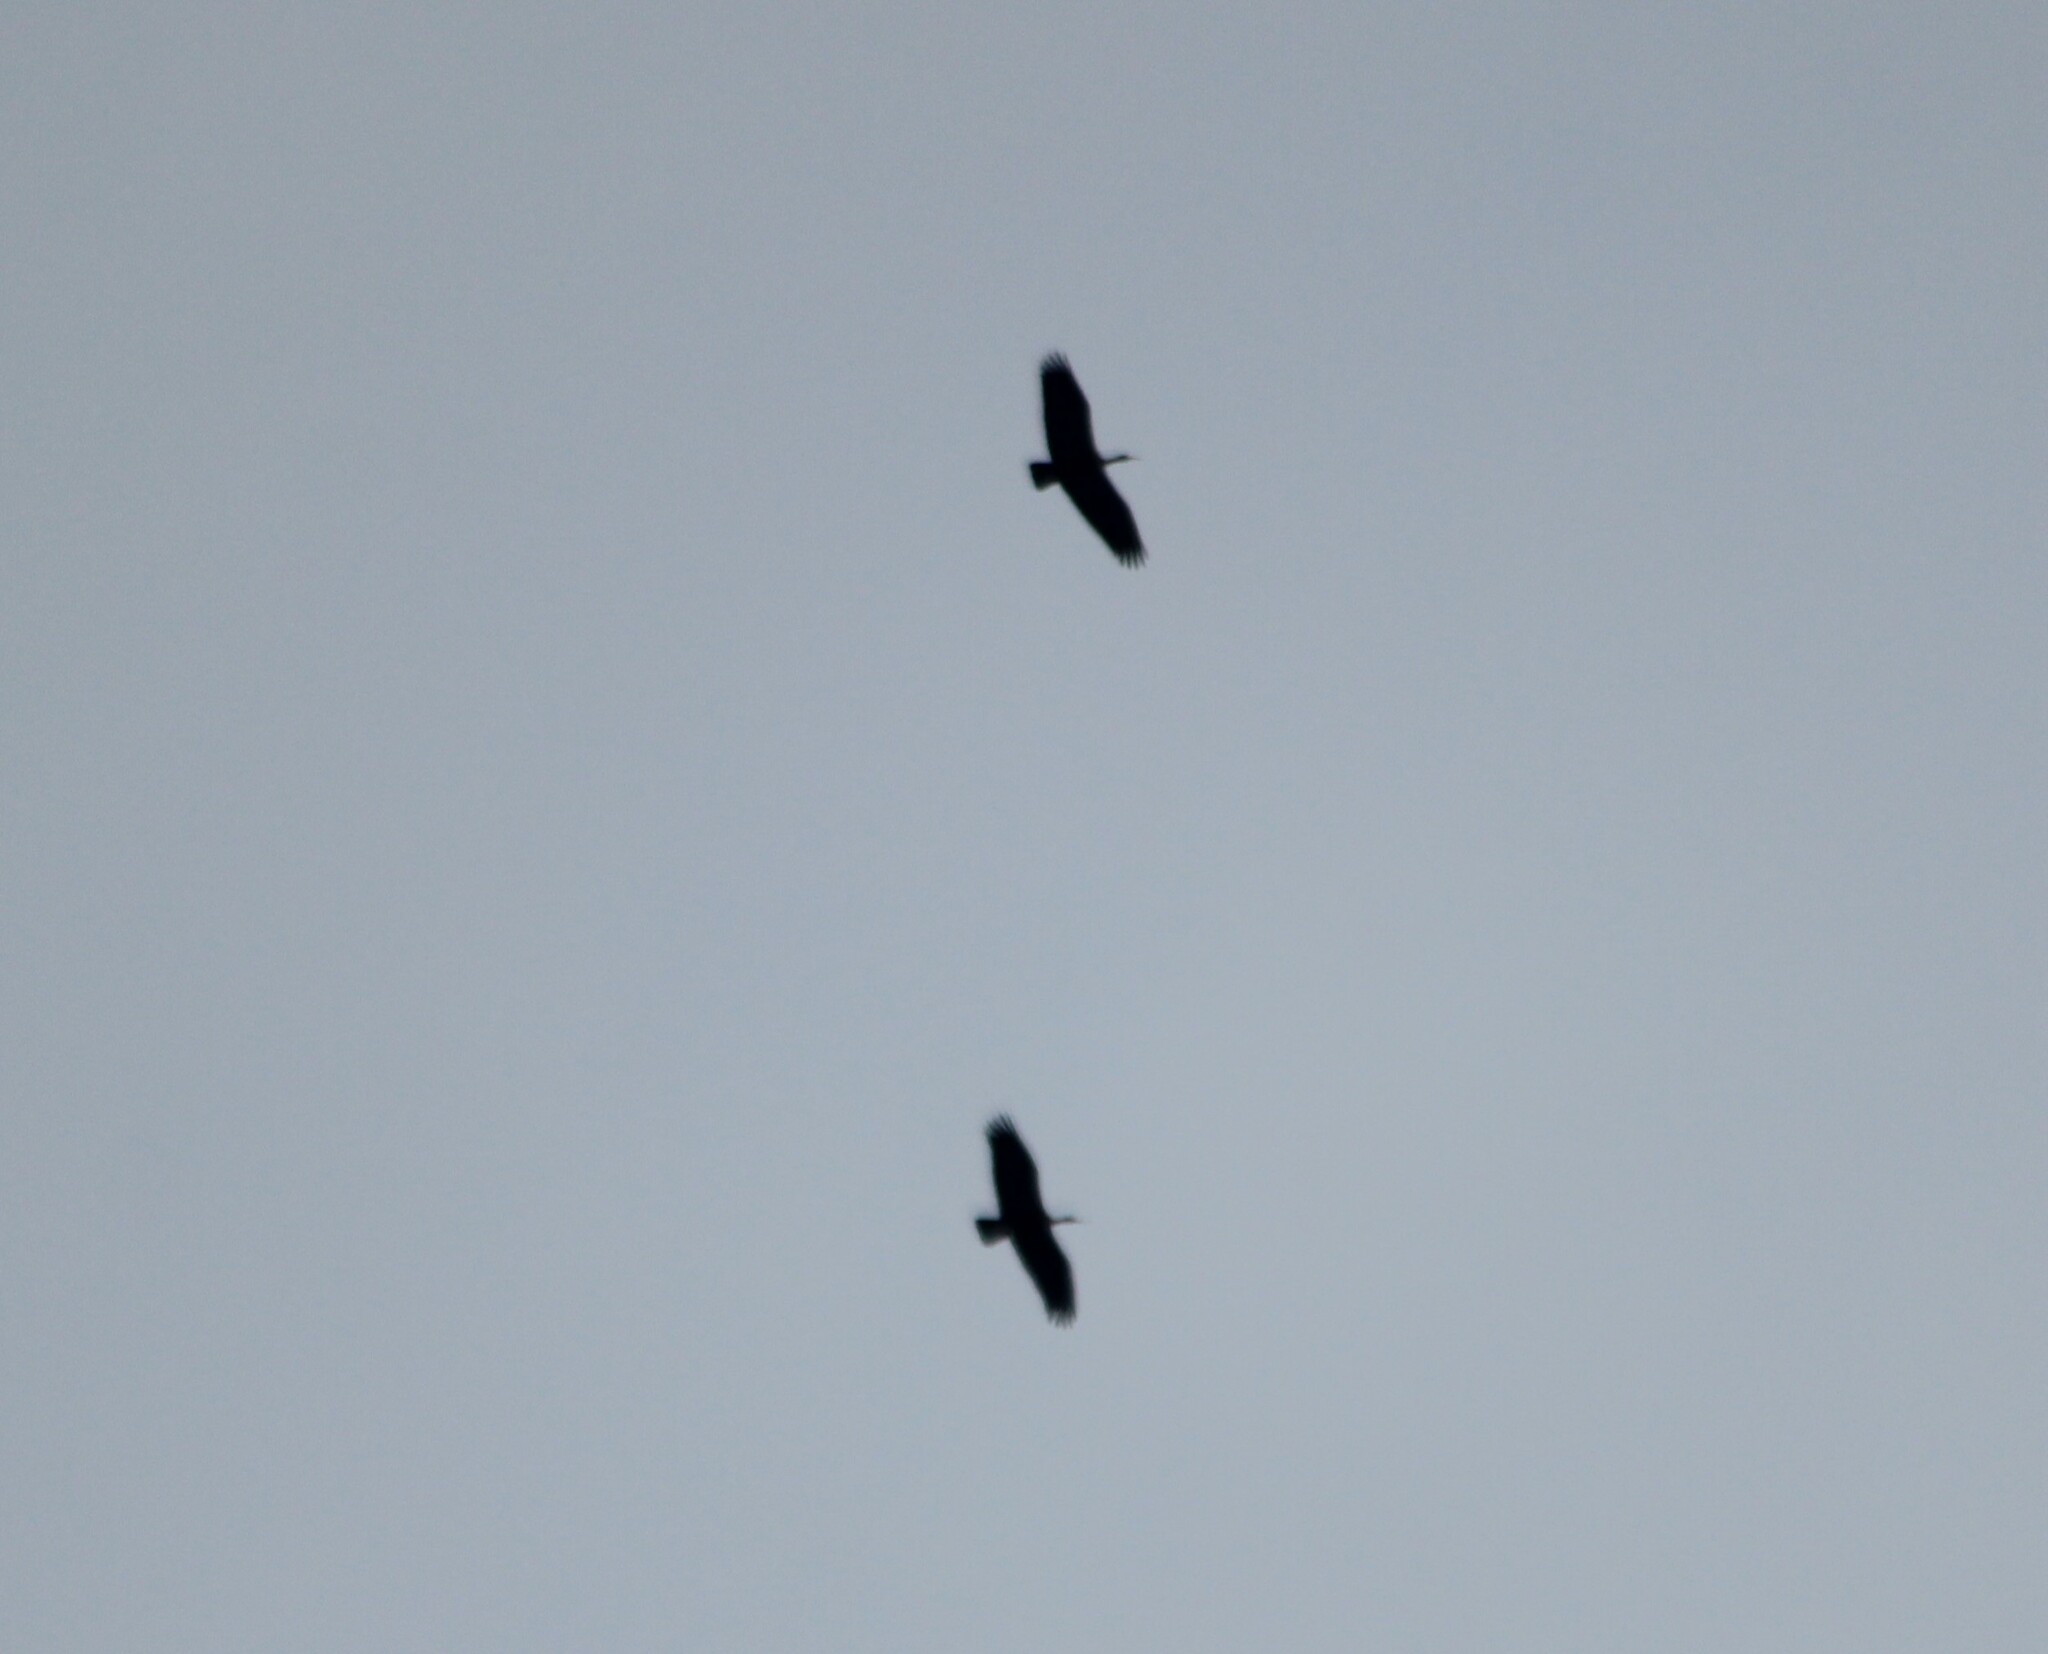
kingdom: Animalia
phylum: Chordata
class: Aves
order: Pelecaniformes
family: Threskiornithidae
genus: Pseudibis
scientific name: Pseudibis papillosa
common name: Red-naped ibis
